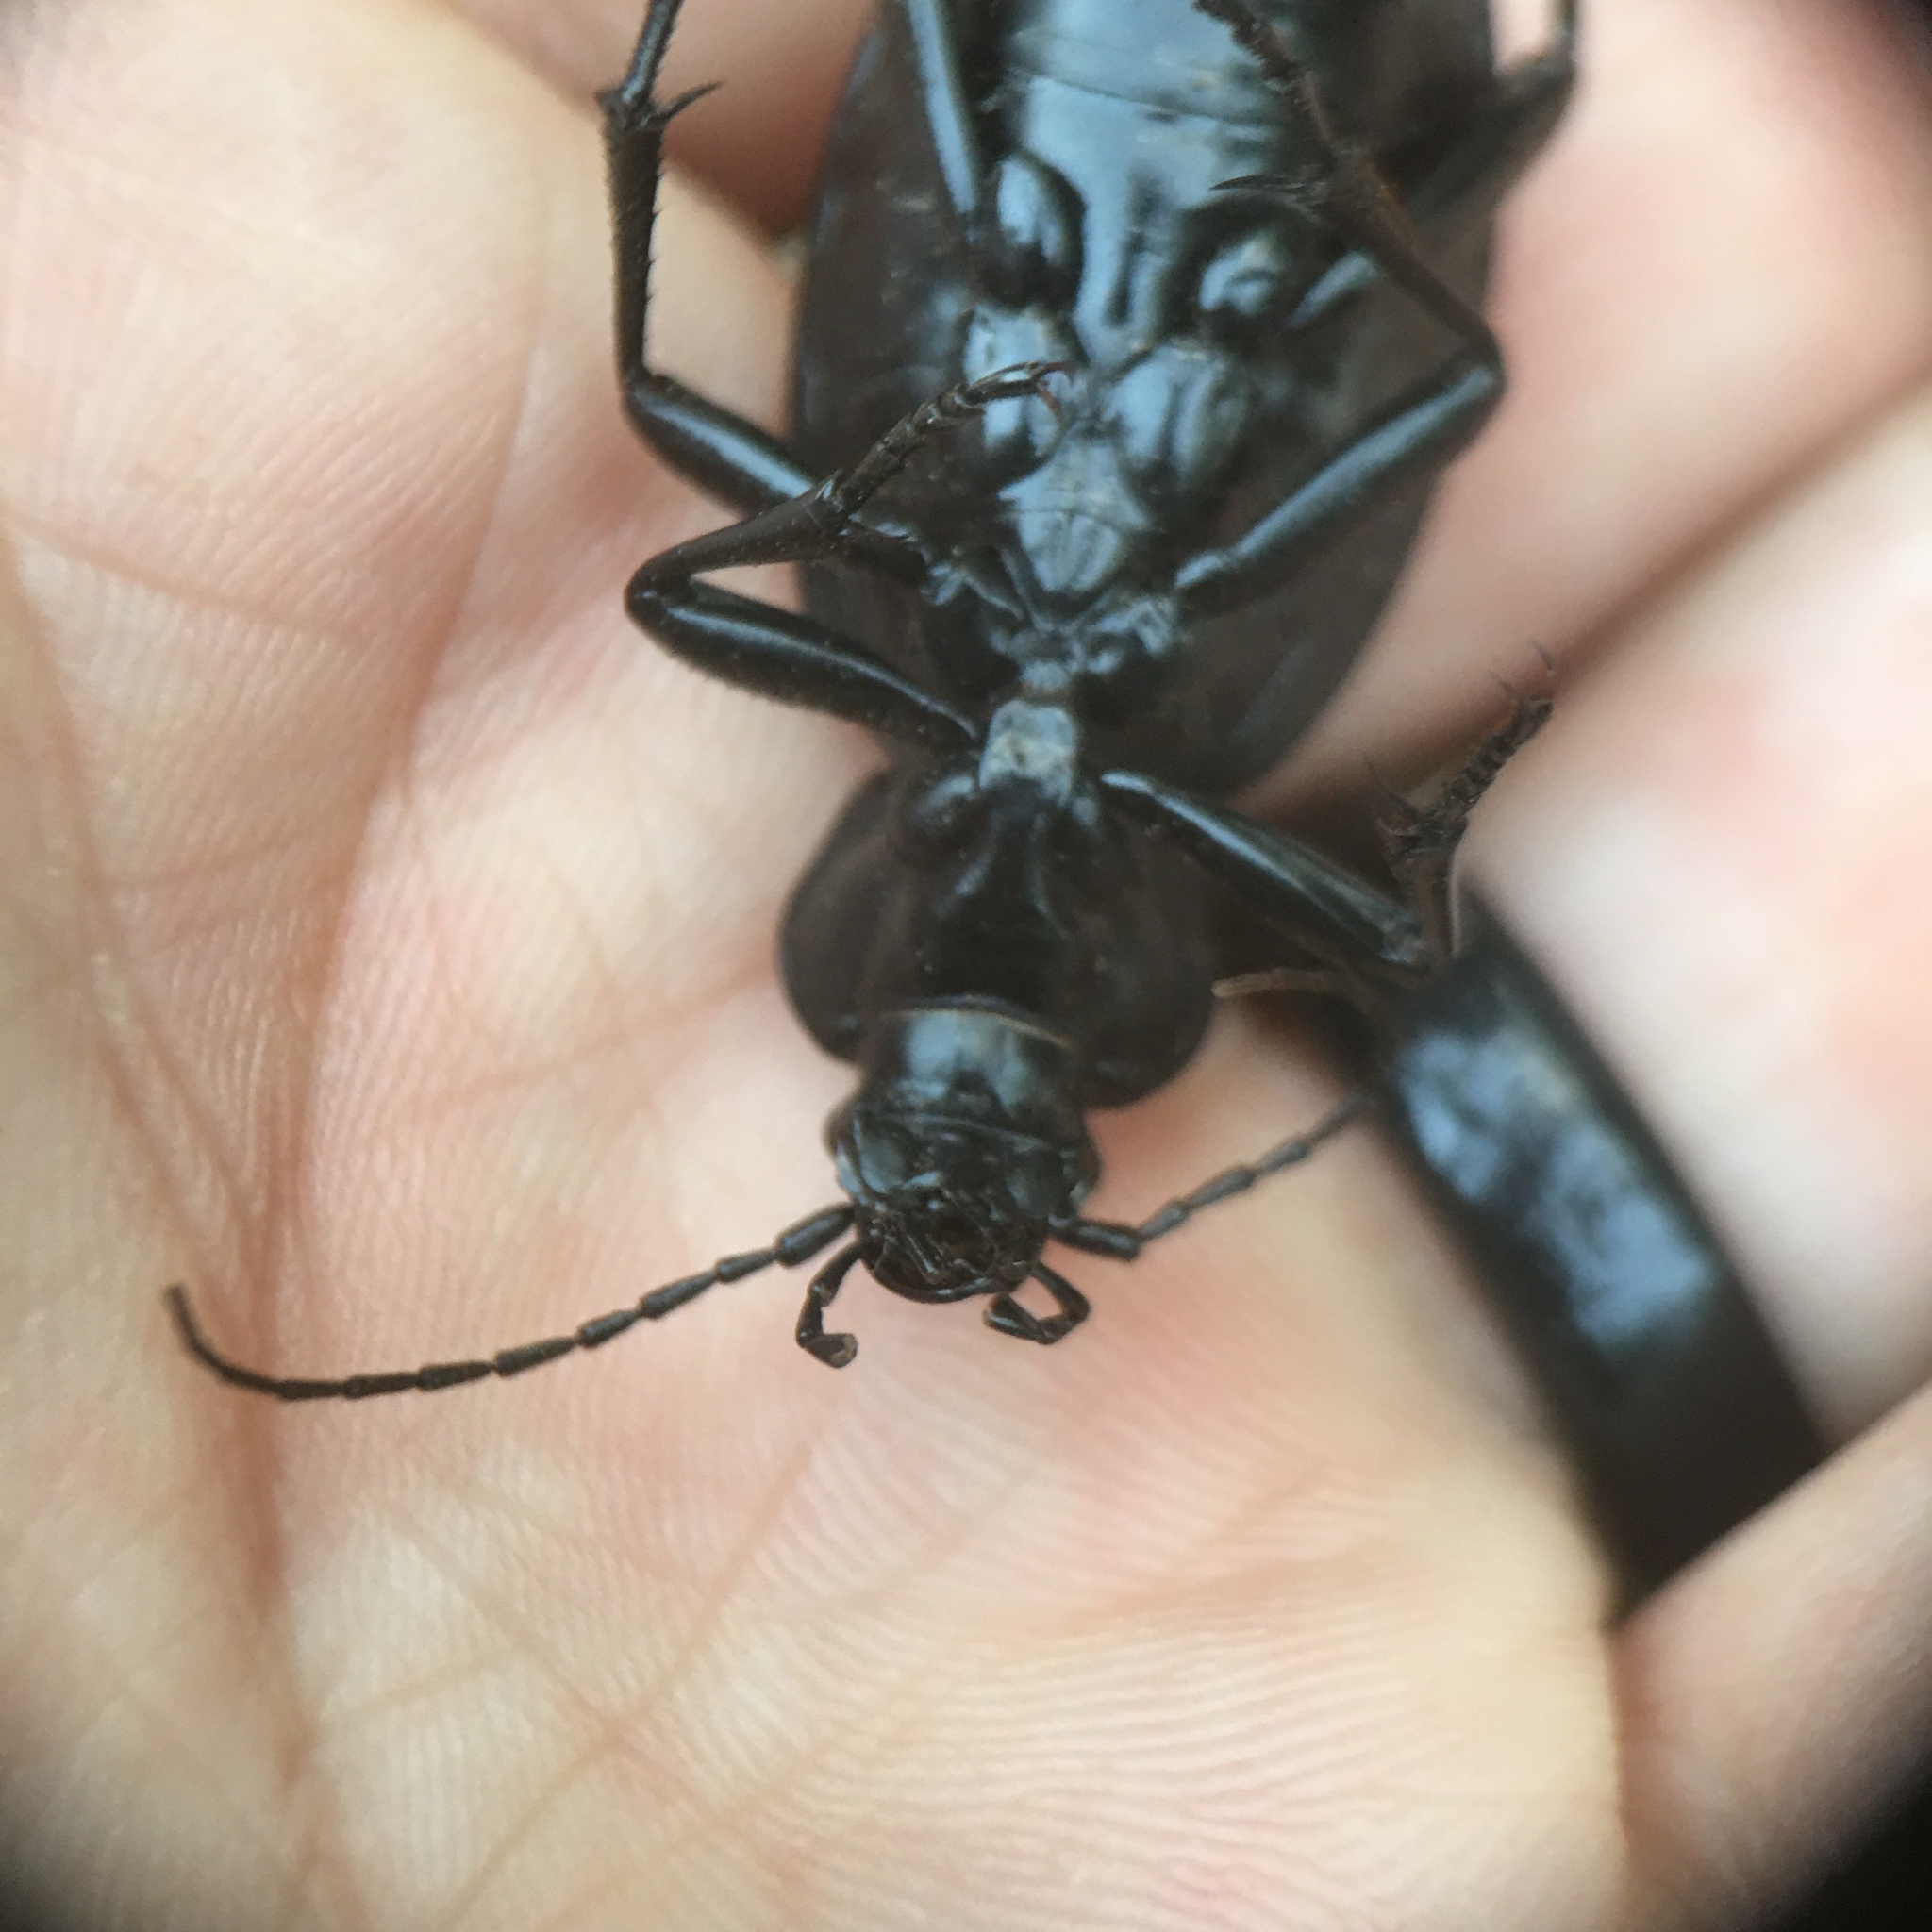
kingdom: Animalia
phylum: Arthropoda
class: Insecta
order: Coleoptera
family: Carabidae
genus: Carabus
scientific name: Carabus coriaceus
